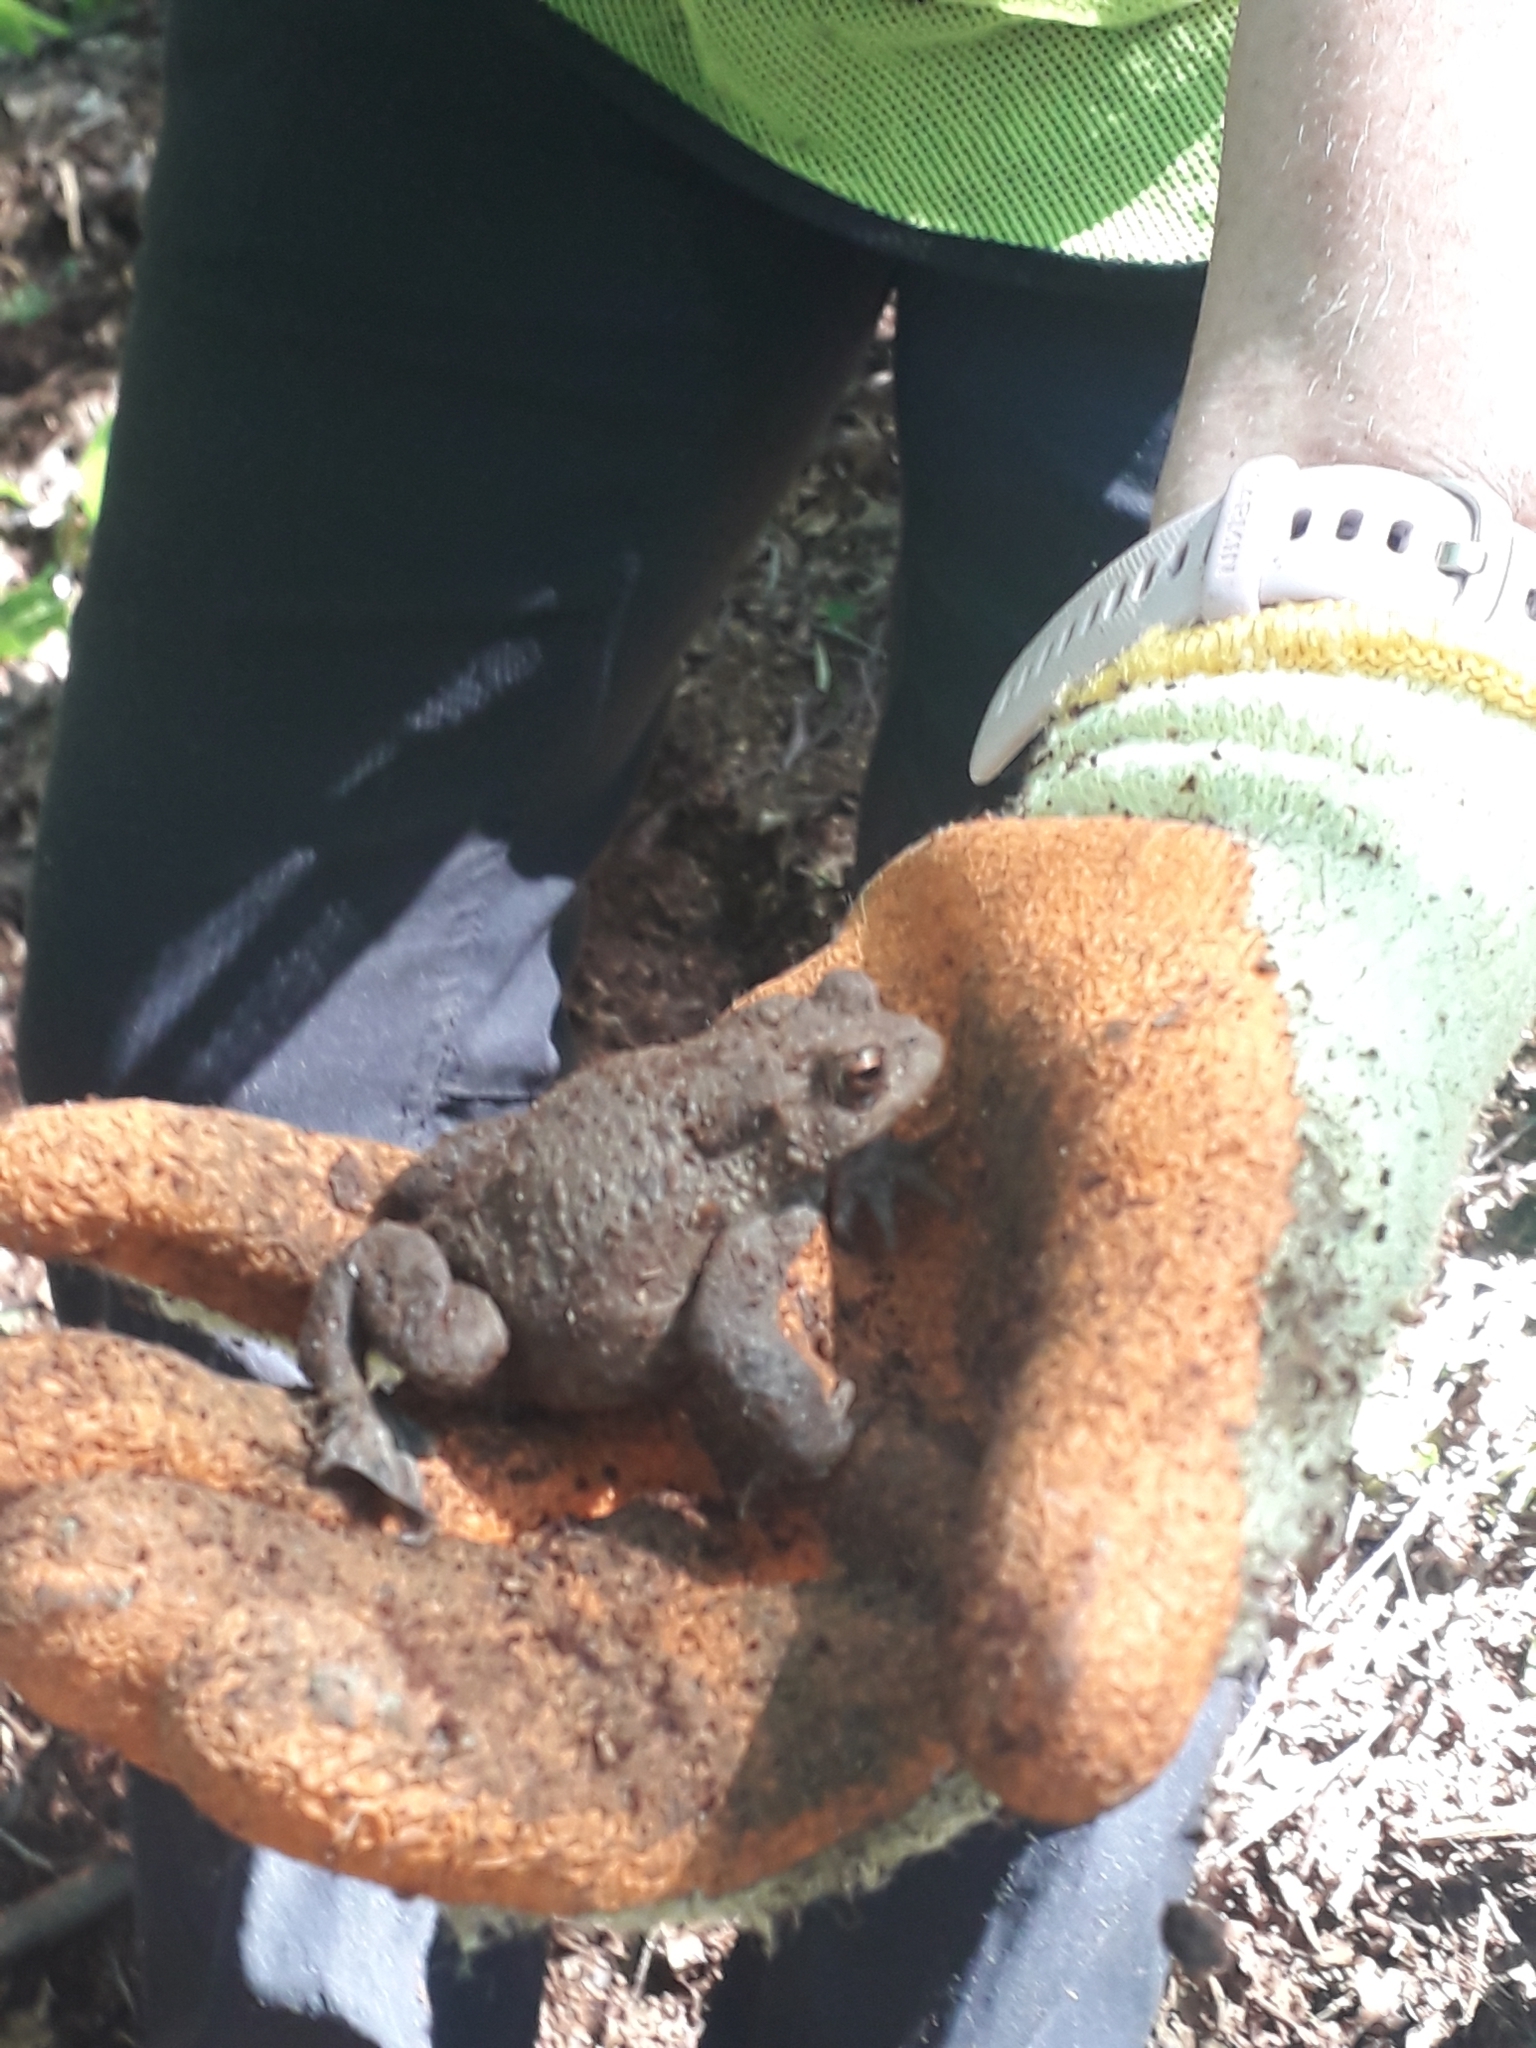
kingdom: Animalia
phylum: Chordata
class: Amphibia
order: Anura
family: Bufonidae
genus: Bufo
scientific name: Bufo bufo
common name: Common toad
